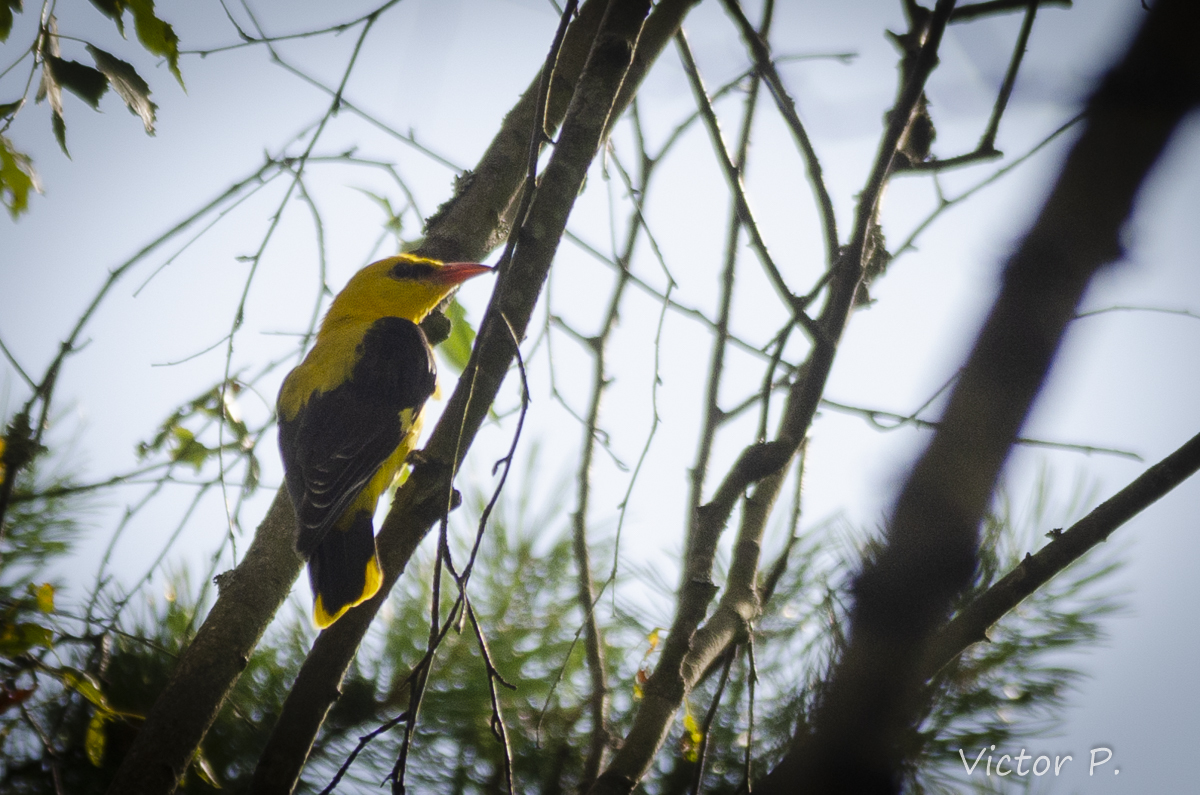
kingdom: Animalia
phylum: Chordata
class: Aves
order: Passeriformes
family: Oriolidae
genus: Oriolus
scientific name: Oriolus oriolus
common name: Eurasian golden oriole
